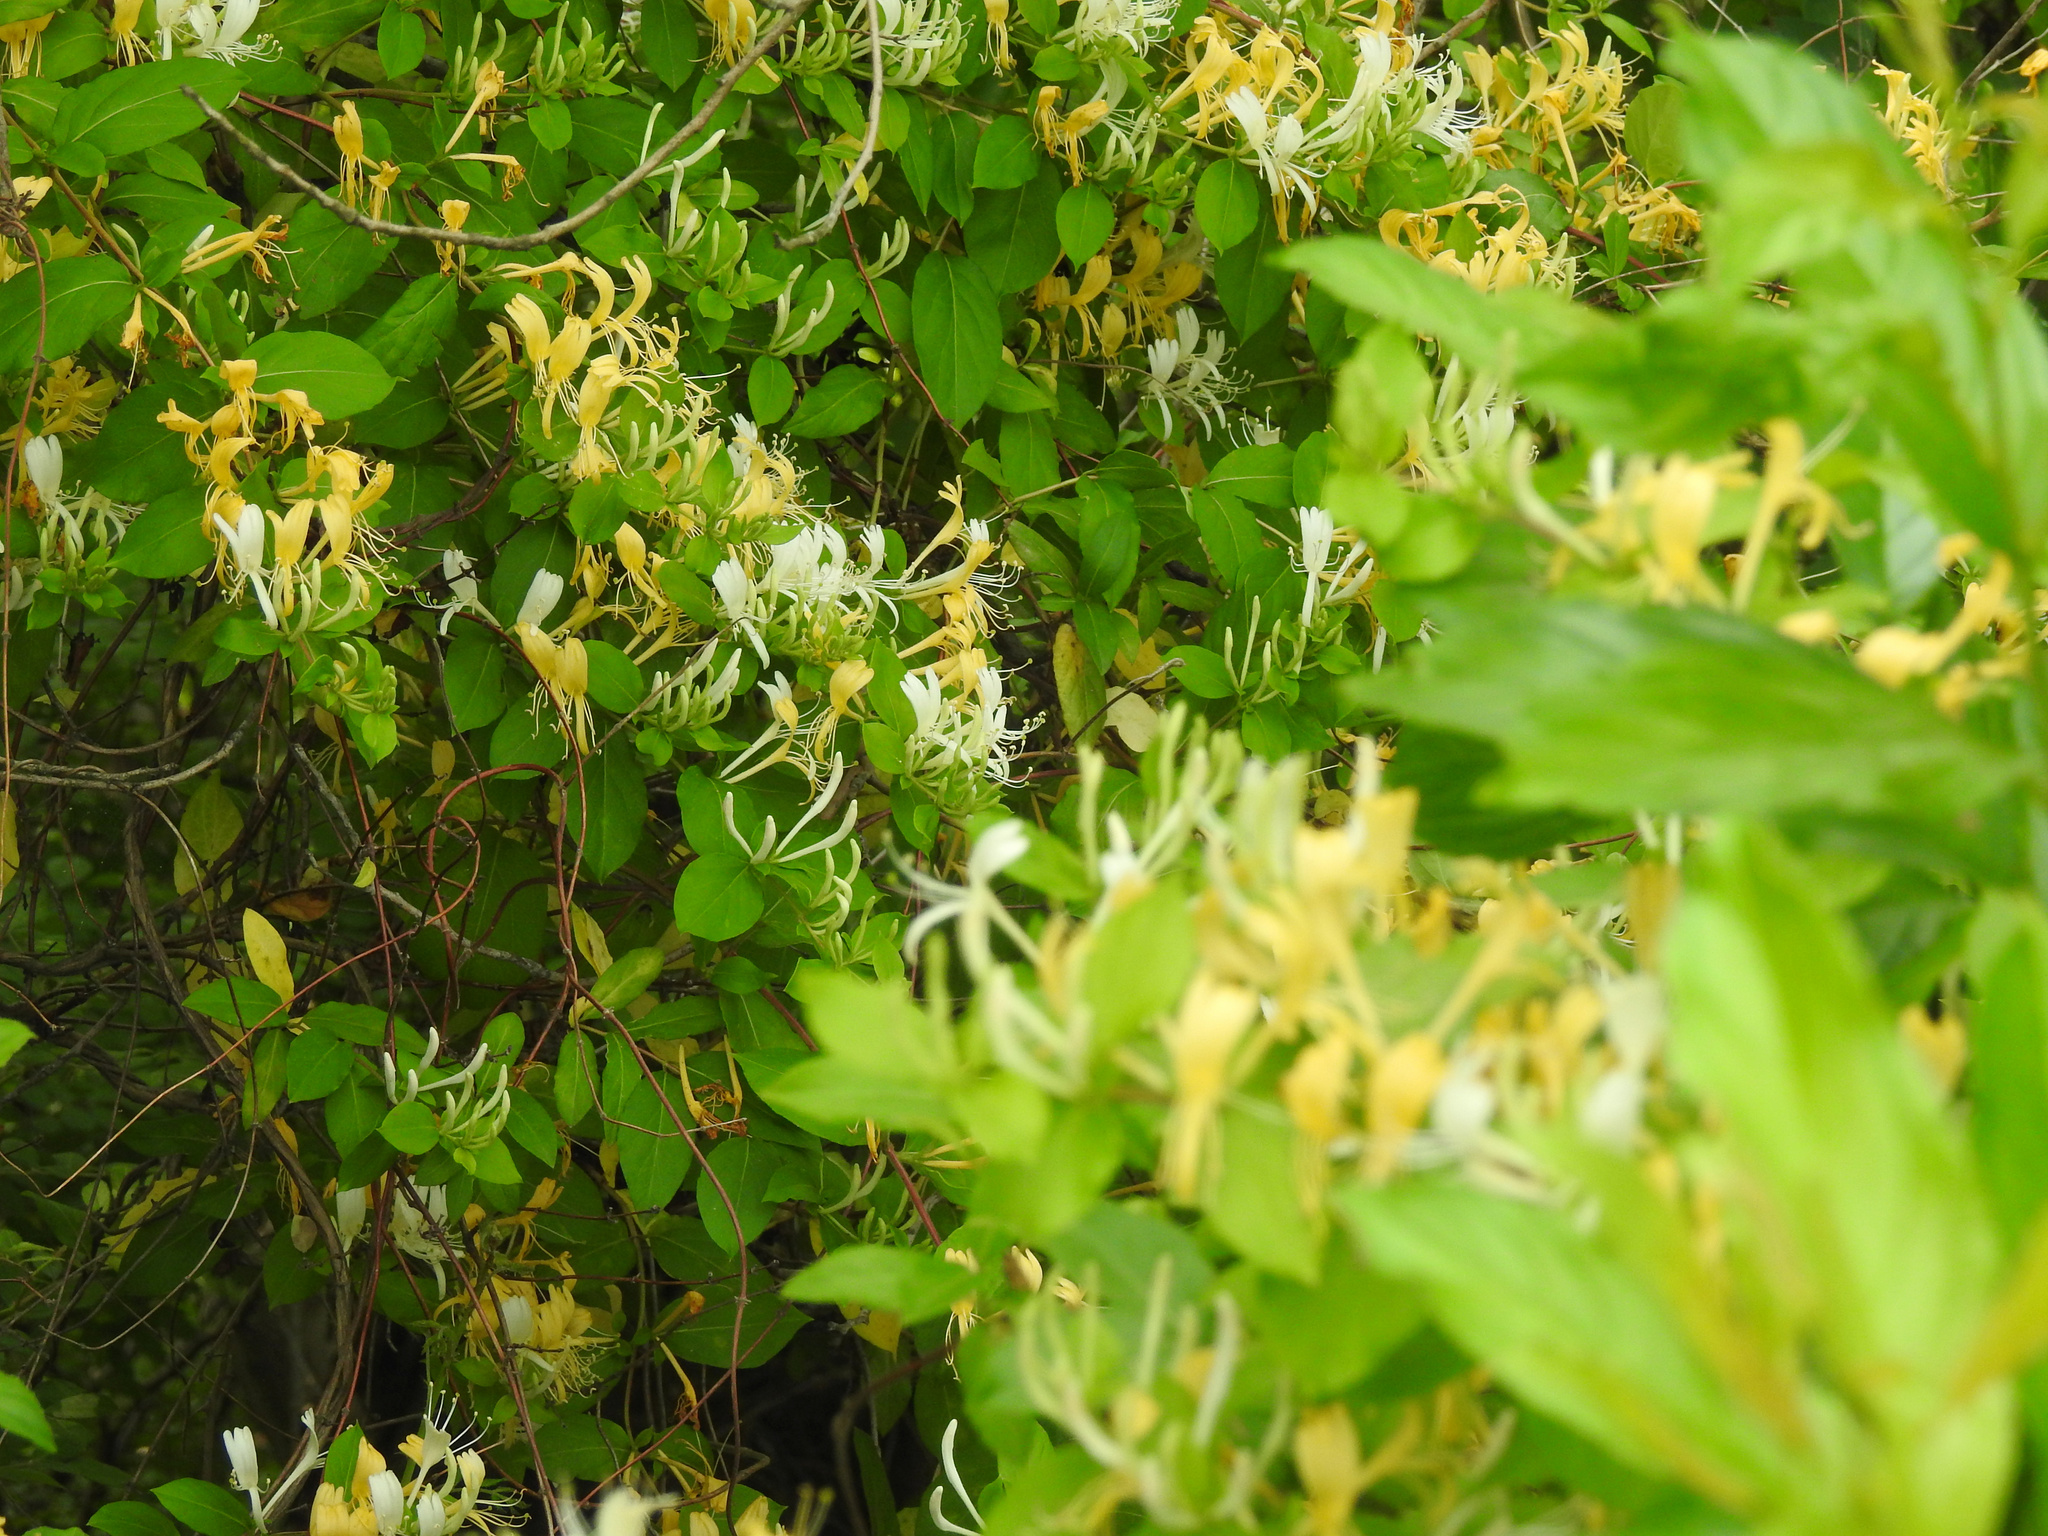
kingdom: Plantae
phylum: Tracheophyta
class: Magnoliopsida
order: Dipsacales
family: Caprifoliaceae
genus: Lonicera
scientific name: Lonicera japonica
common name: Japanese honeysuckle
